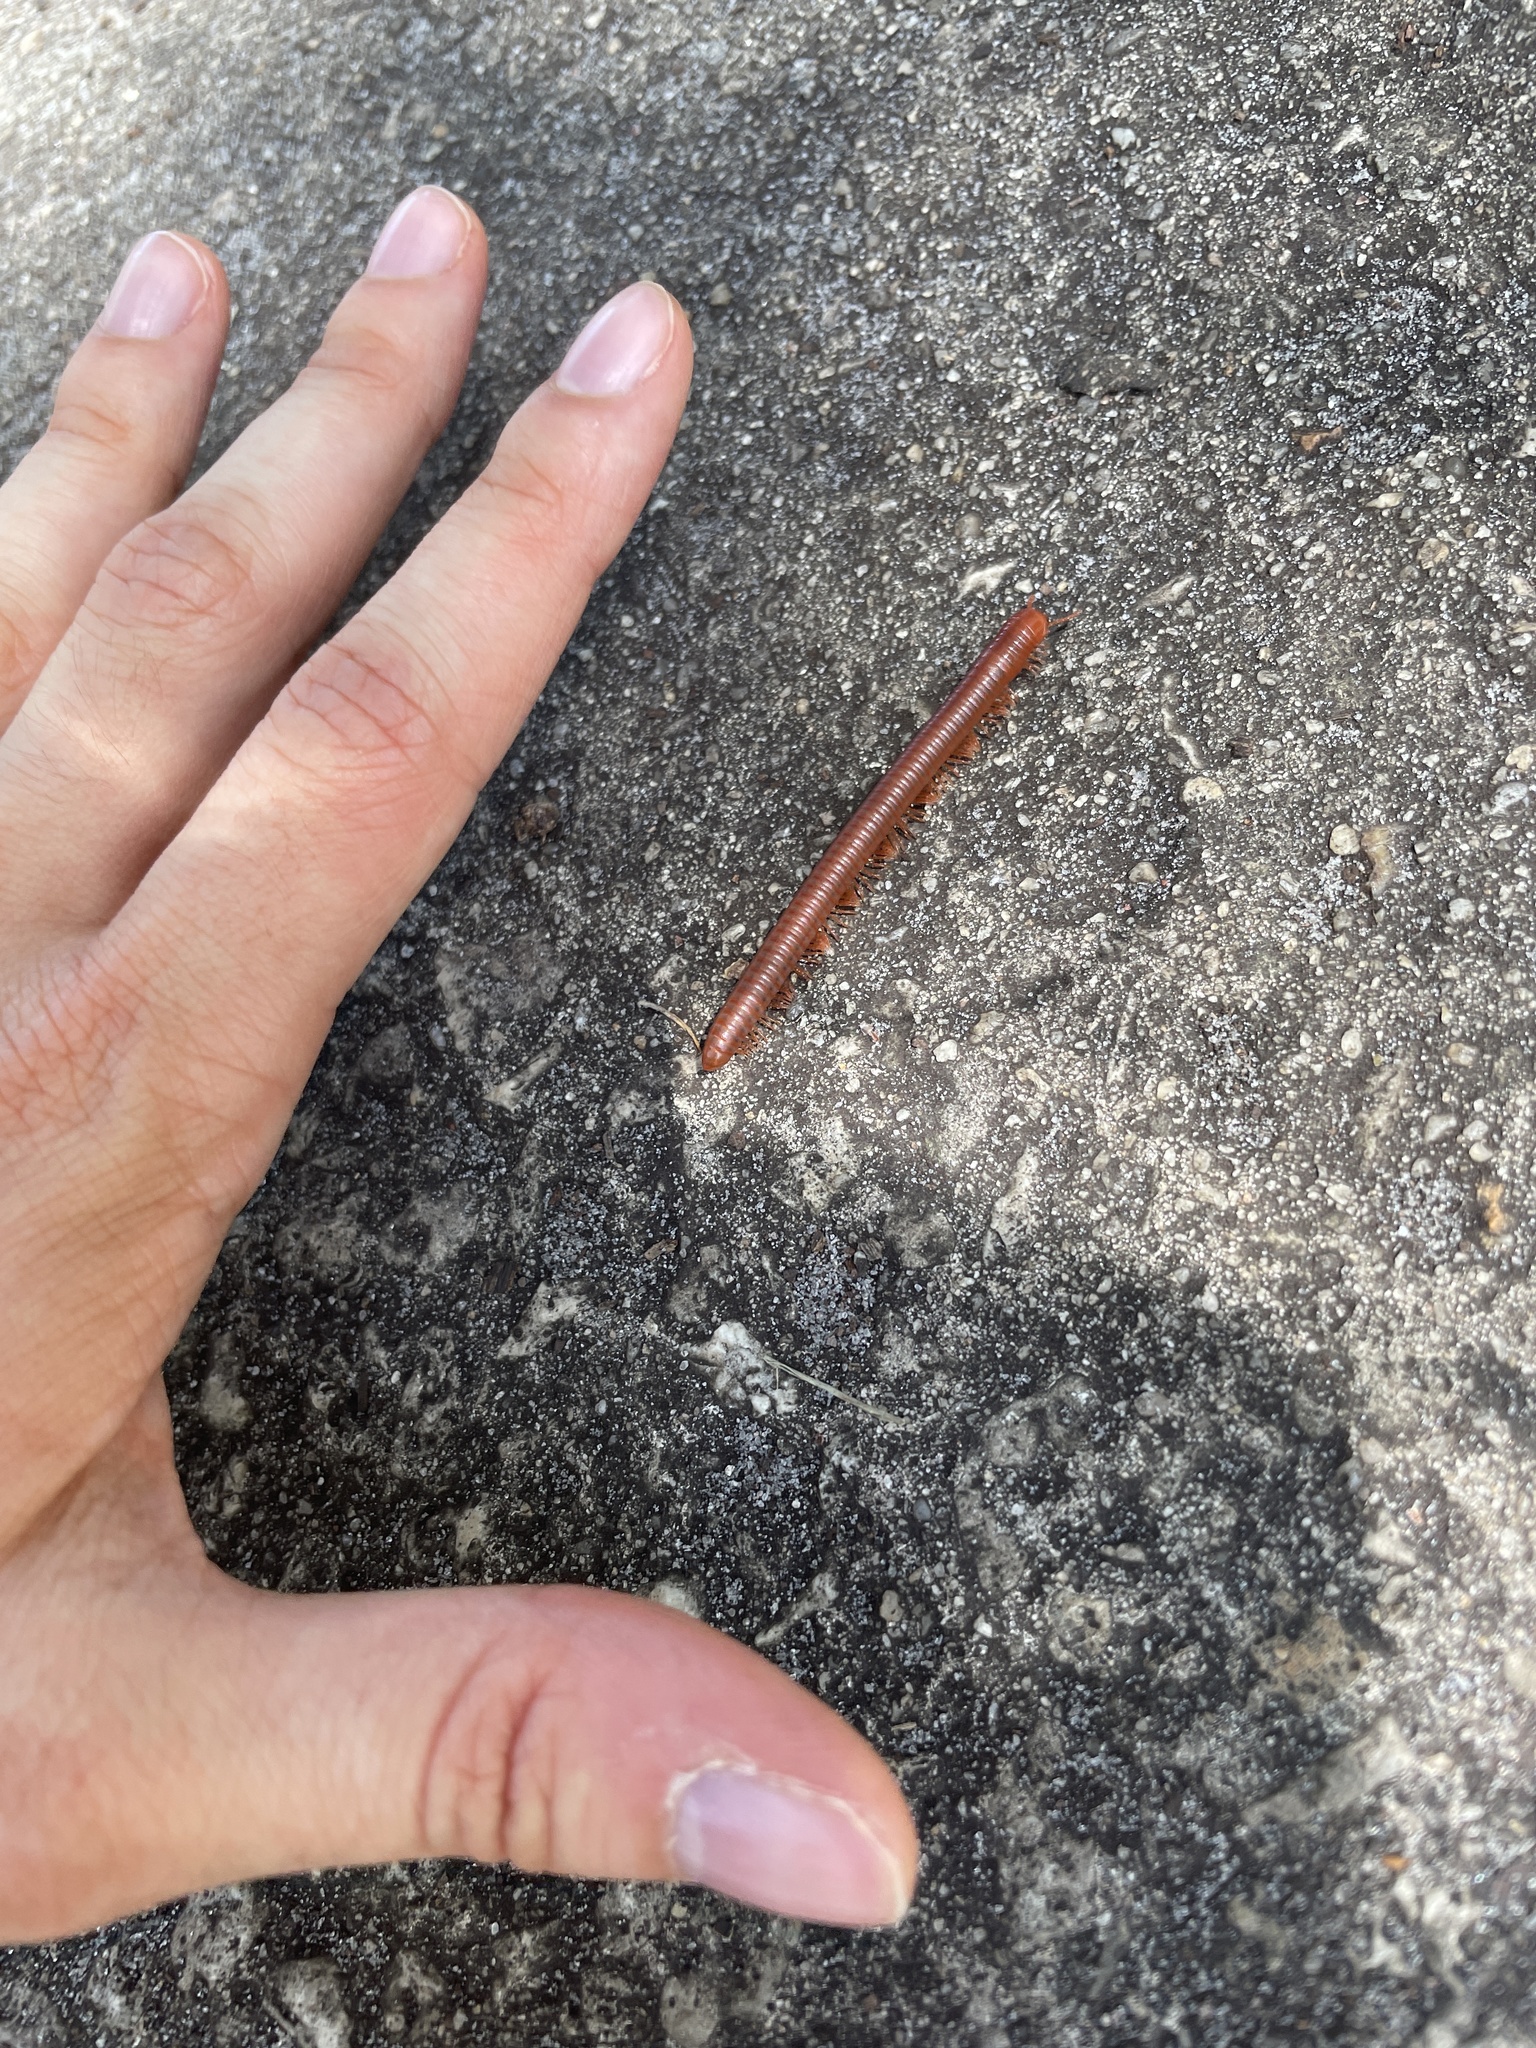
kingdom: Animalia
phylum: Arthropoda
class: Diplopoda
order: Spirobolida
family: Pachybolidae
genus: Trigoniulus
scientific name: Trigoniulus corallinus
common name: Millipede
